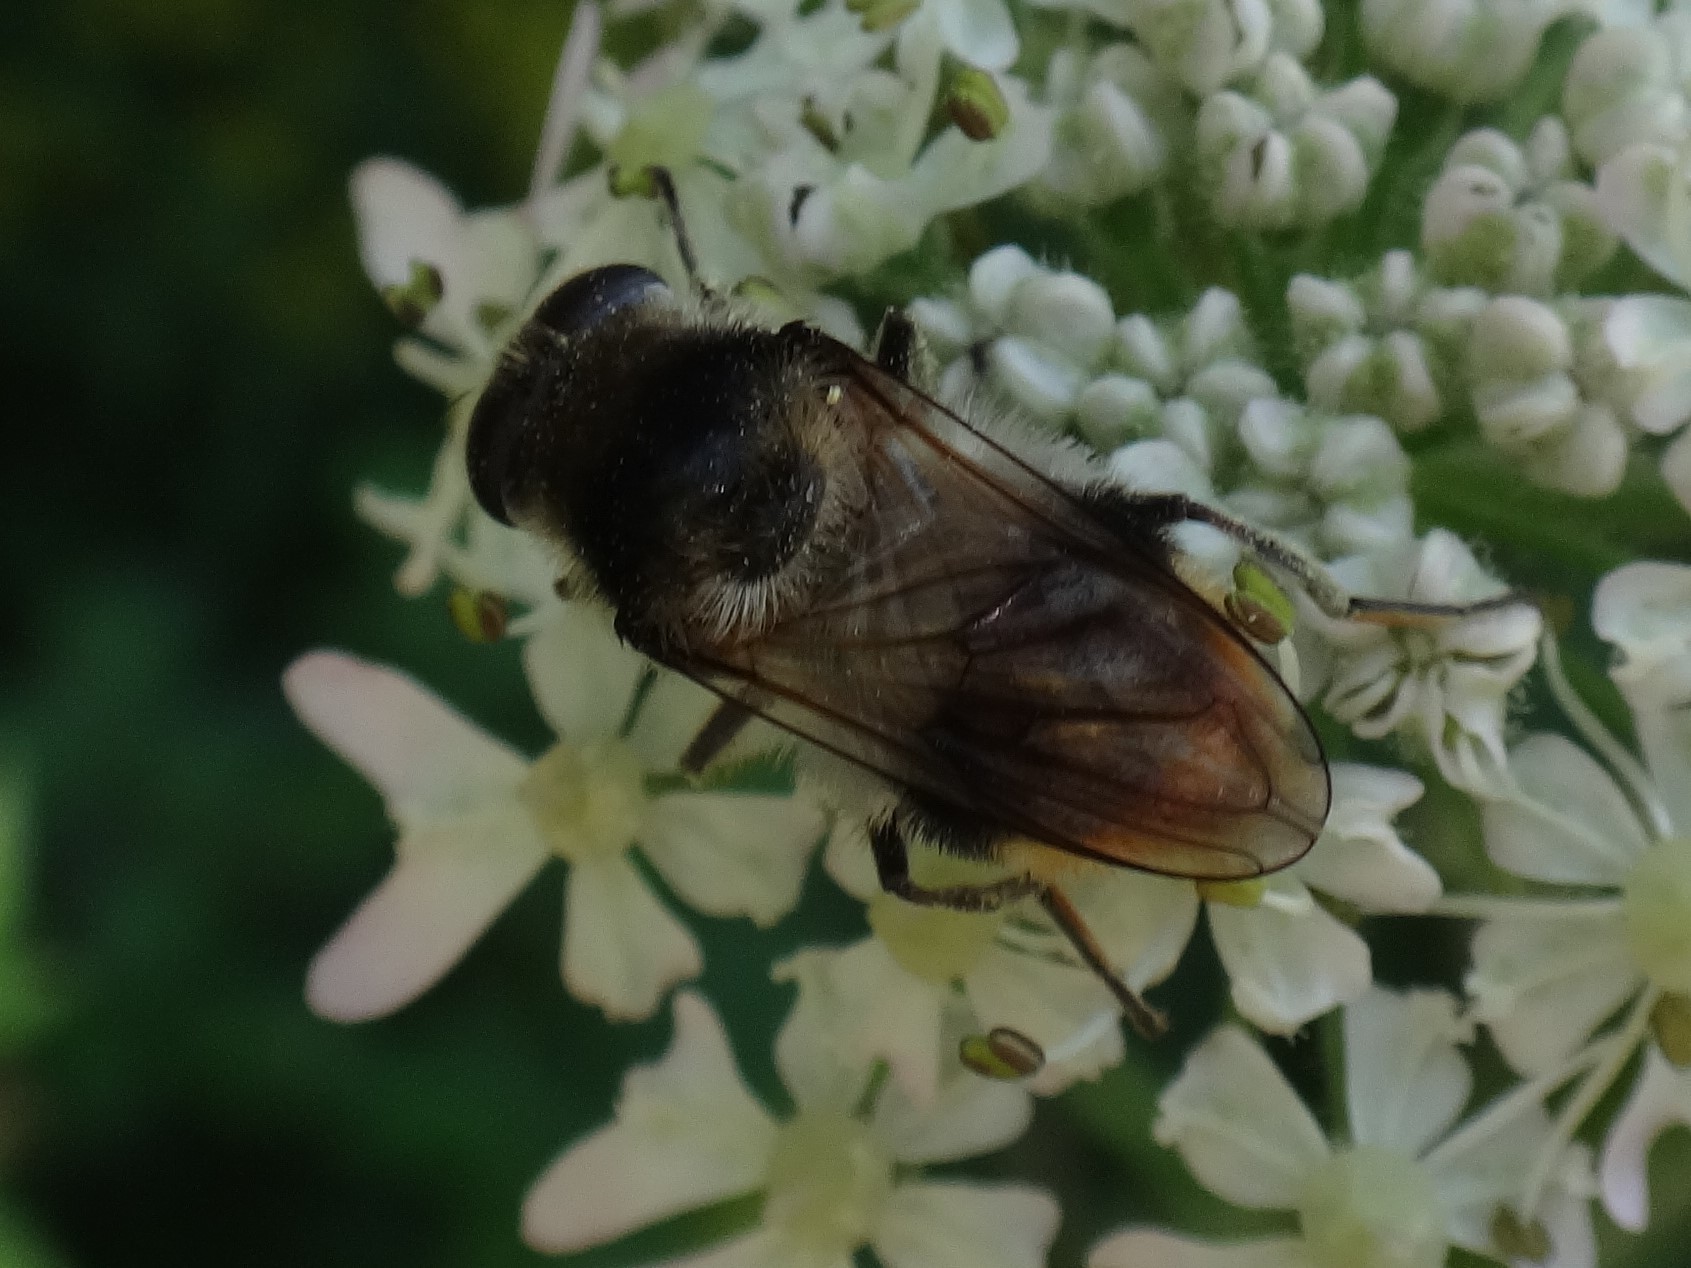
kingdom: Animalia
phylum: Arthropoda
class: Insecta
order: Diptera
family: Syrphidae
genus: Cheilosia
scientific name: Cheilosia illustrata
